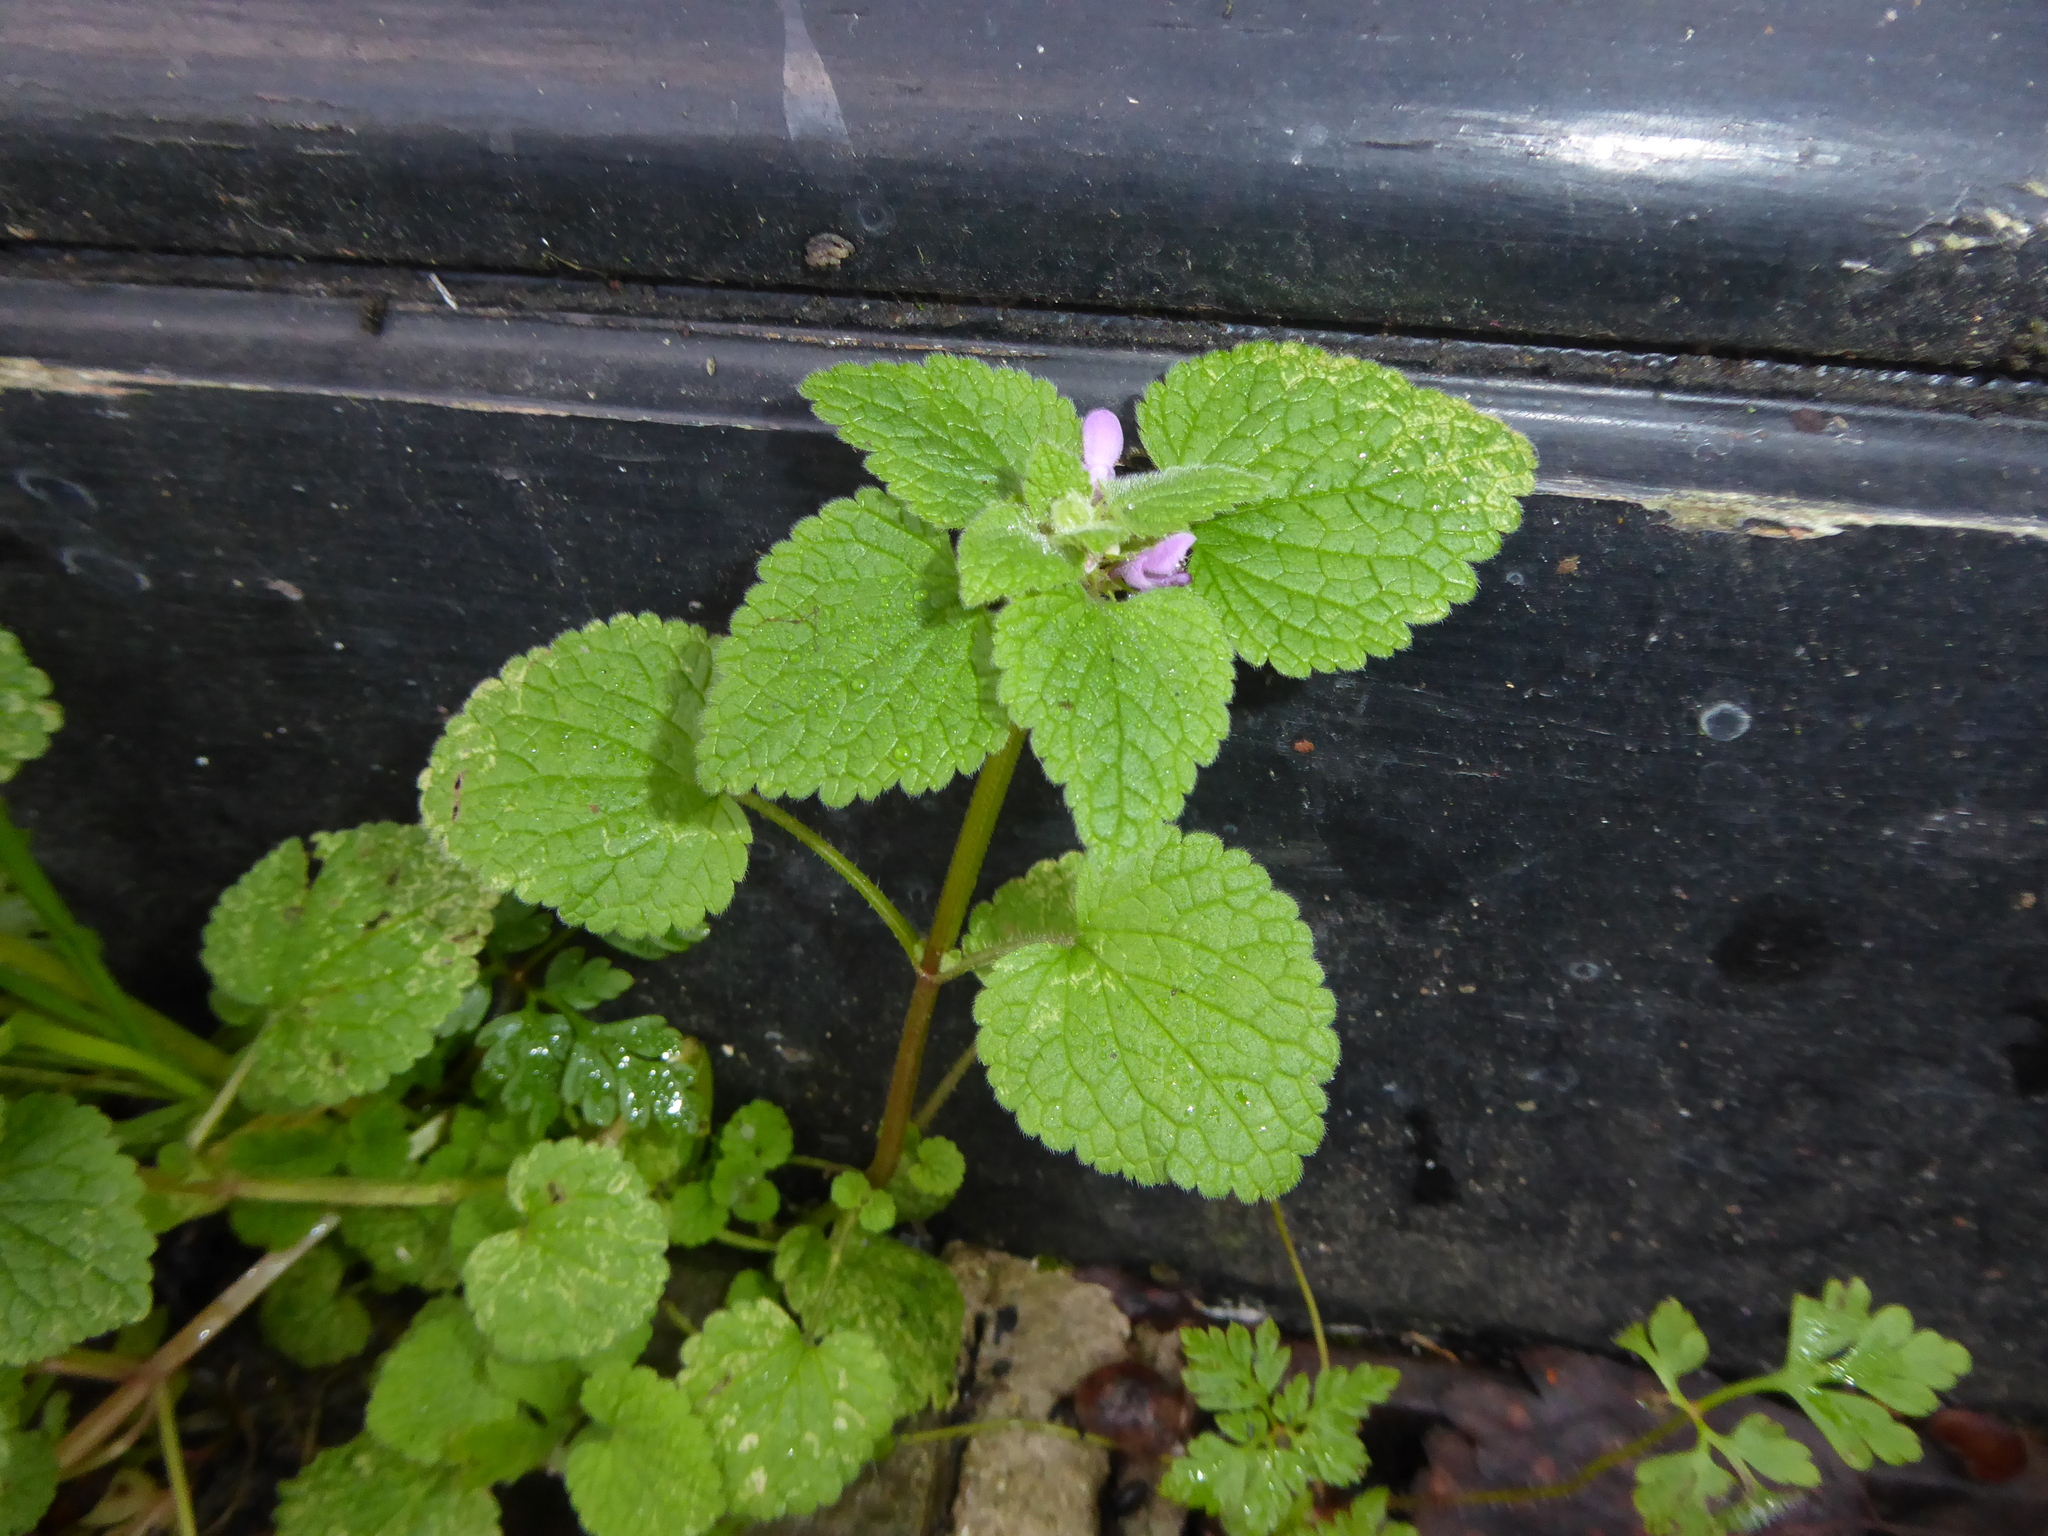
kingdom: Plantae
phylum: Tracheophyta
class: Magnoliopsida
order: Lamiales
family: Lamiaceae
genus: Lamium
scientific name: Lamium purpureum
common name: Red dead-nettle
